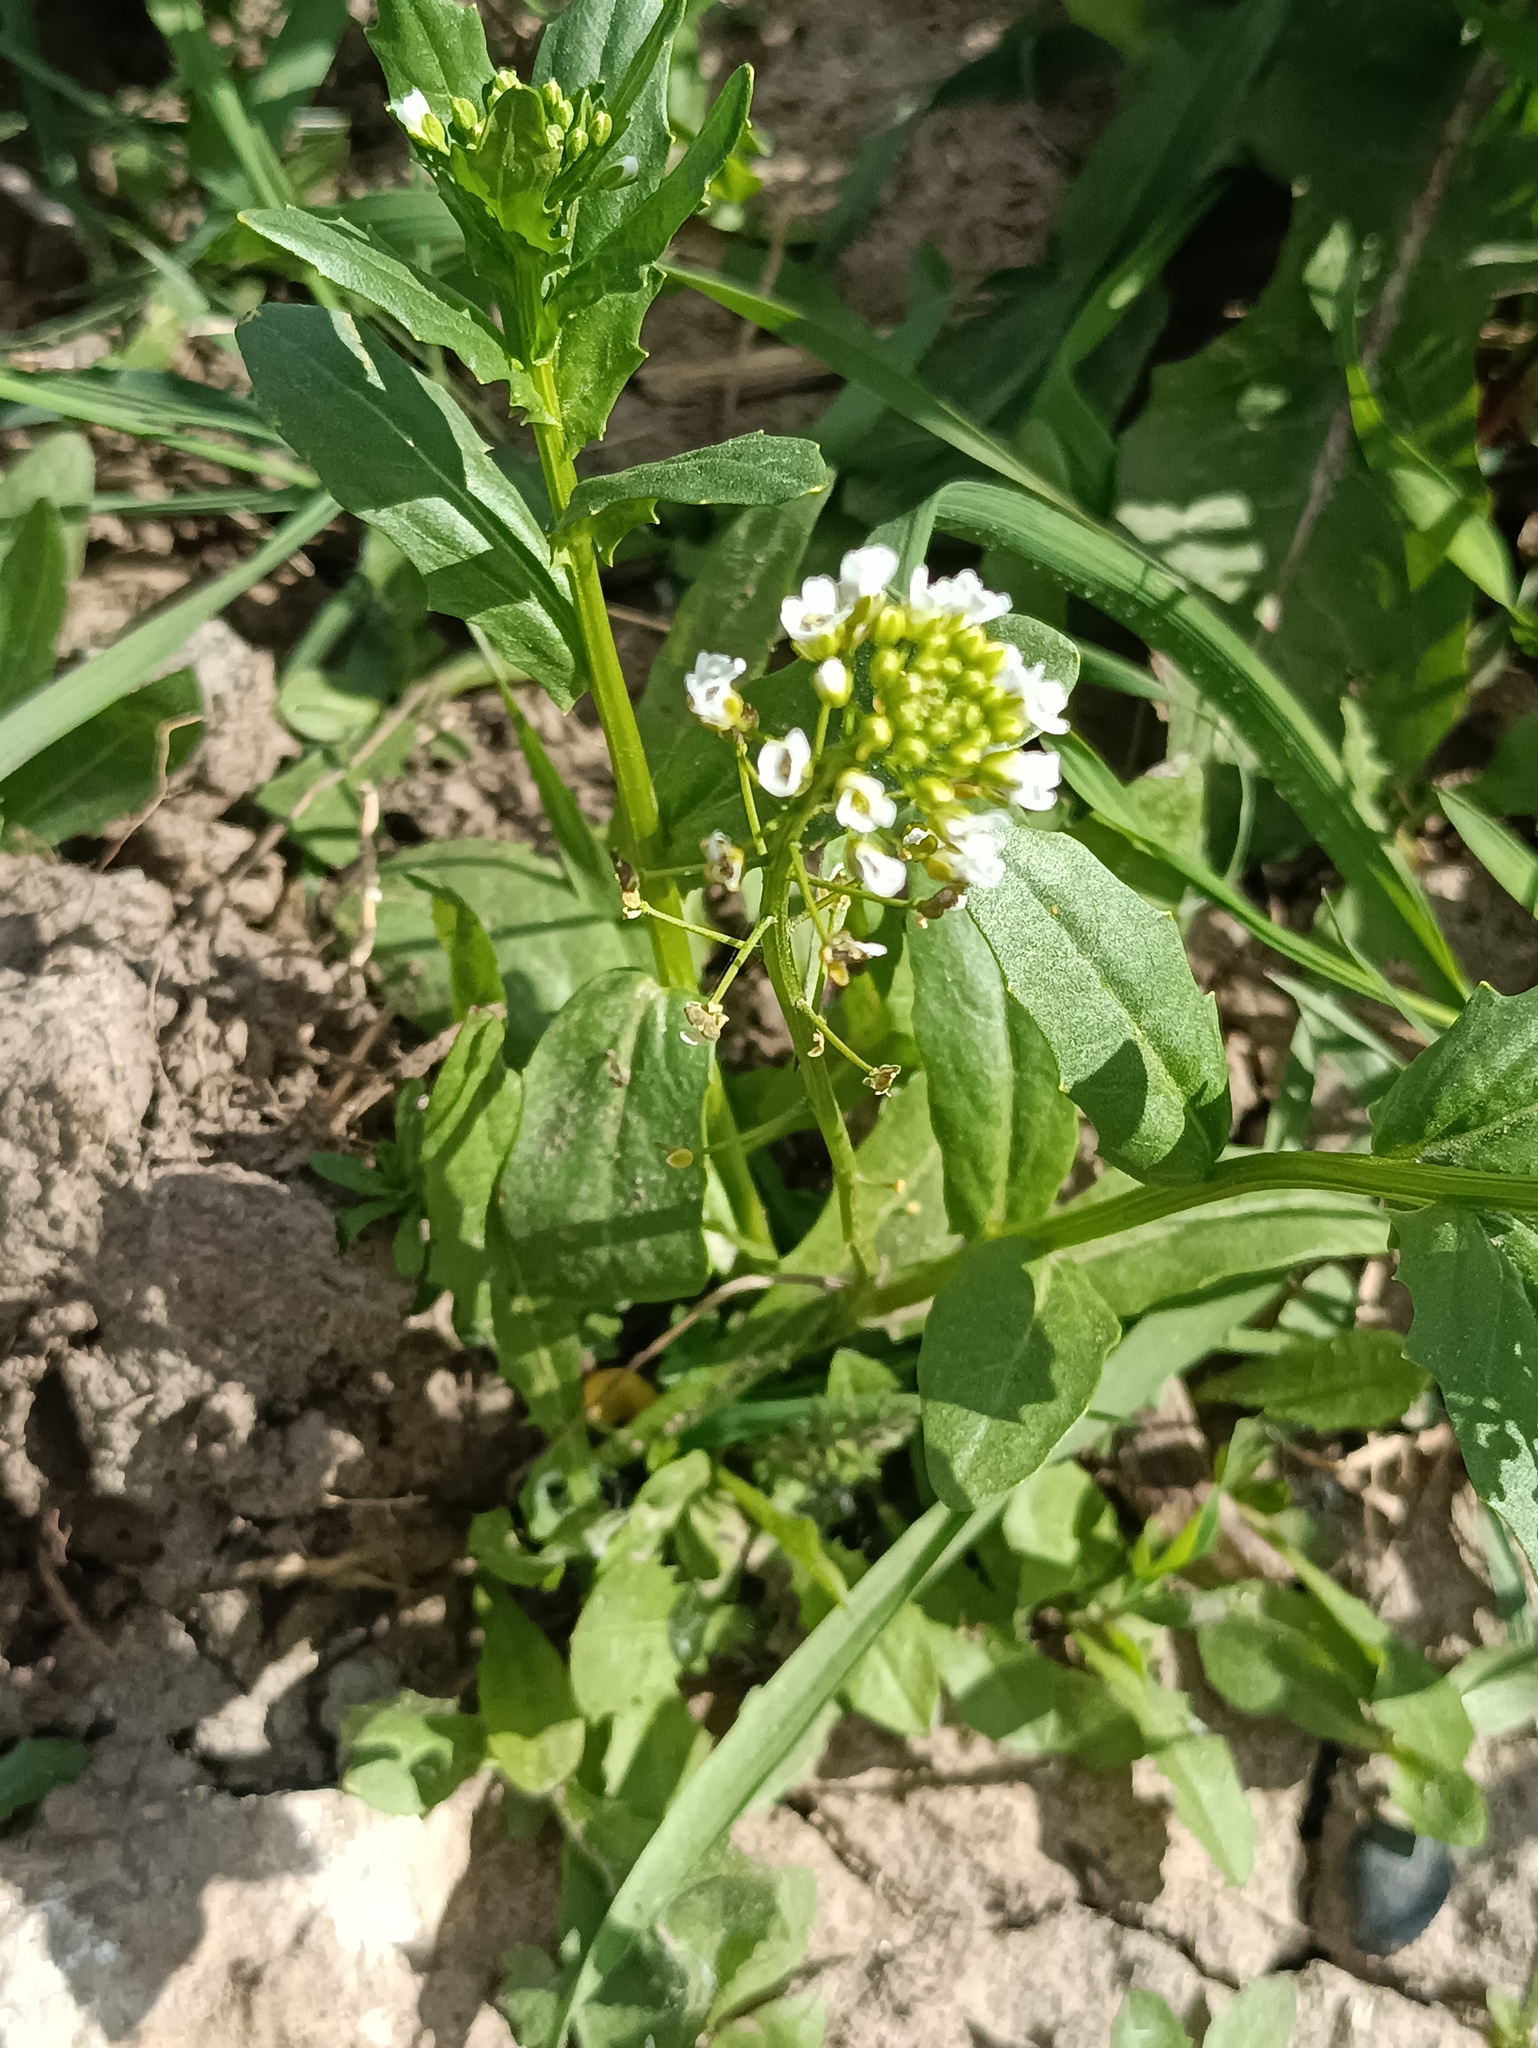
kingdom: Plantae
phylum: Tracheophyta
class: Magnoliopsida
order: Brassicales
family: Brassicaceae
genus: Thlaspi
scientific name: Thlaspi arvense
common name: Field pennycress
